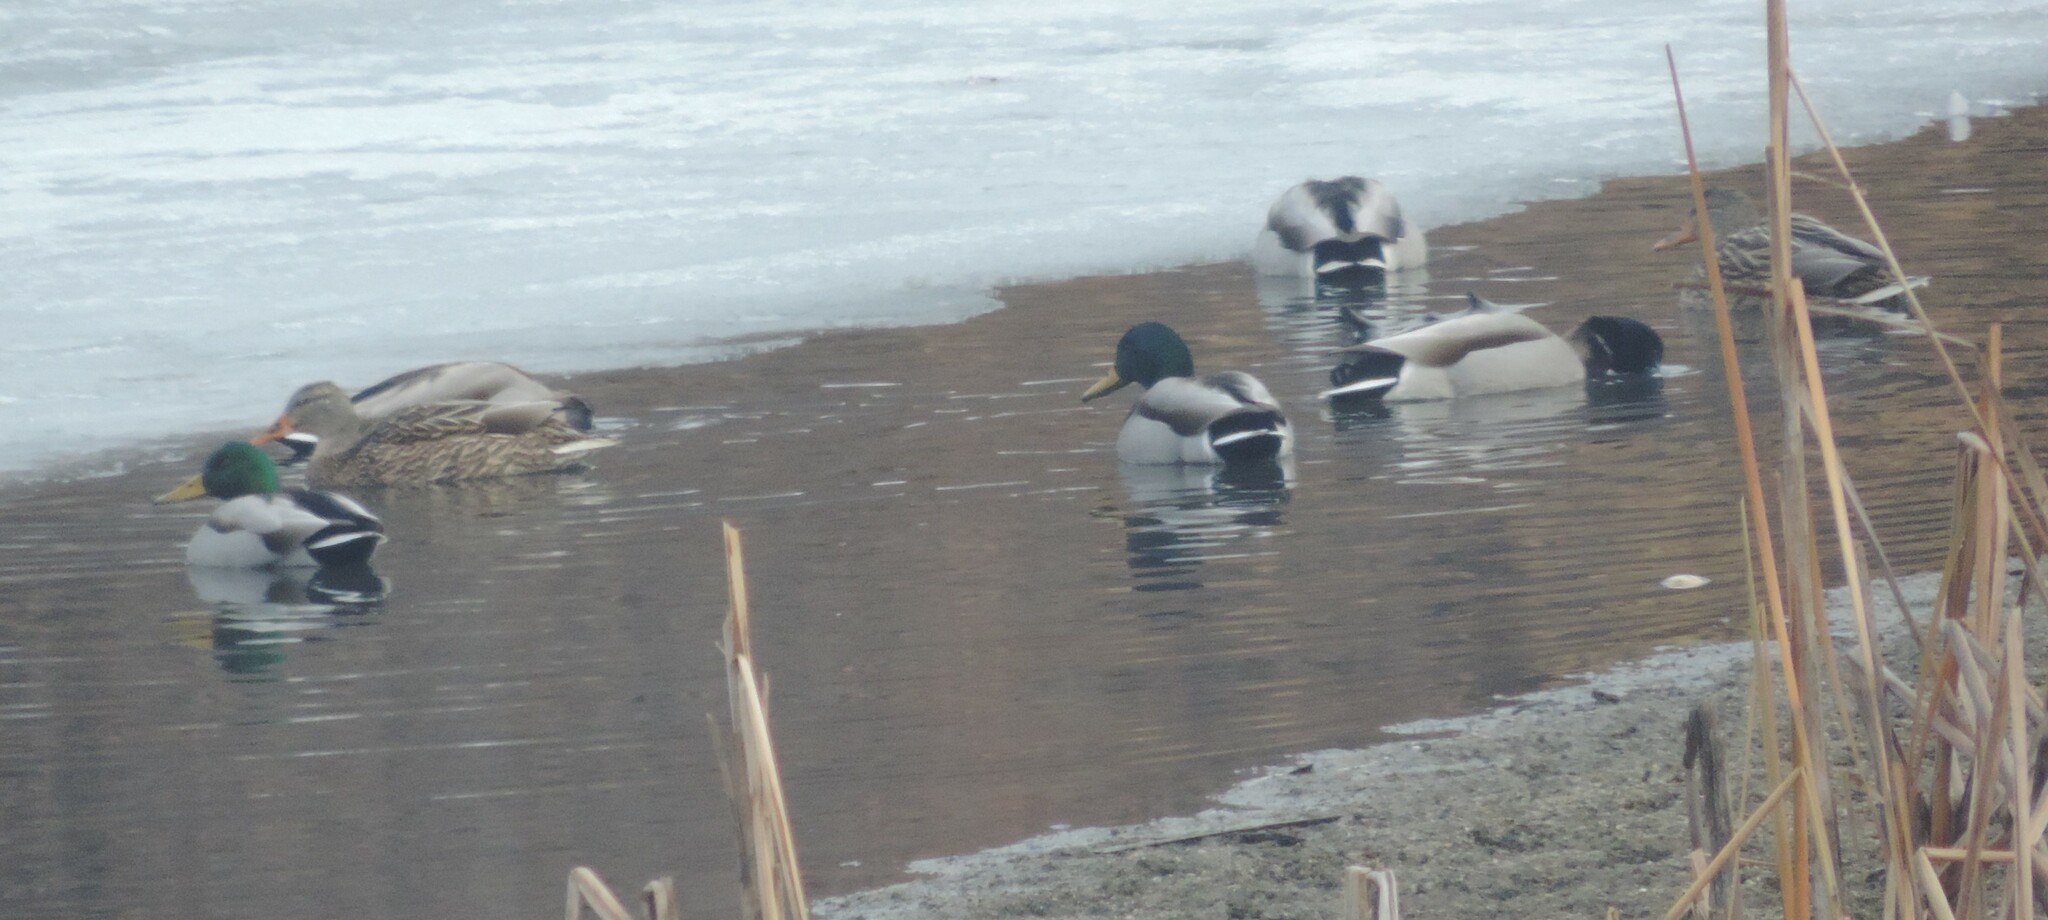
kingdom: Animalia
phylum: Chordata
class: Aves
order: Anseriformes
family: Anatidae
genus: Anas
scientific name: Anas platyrhynchos
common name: Mallard
